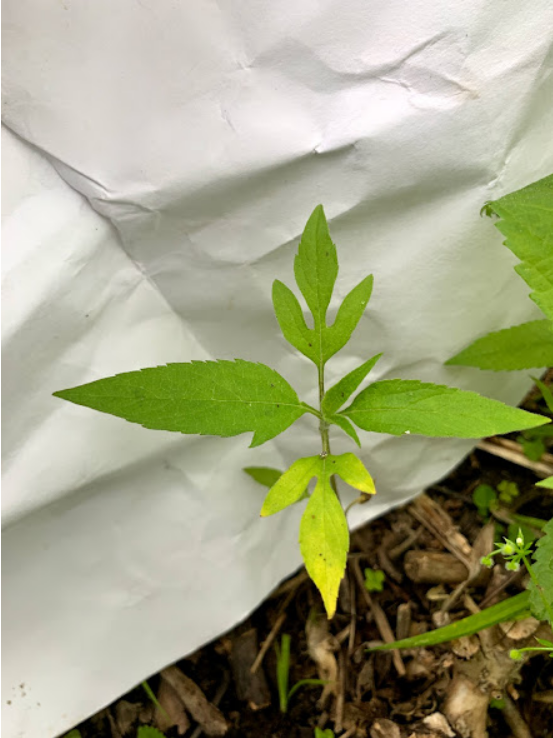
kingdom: Plantae
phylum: Tracheophyta
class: Magnoliopsida
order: Asterales
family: Asteraceae
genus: Ambrosia
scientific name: Ambrosia trifida
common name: Giant ragweed
